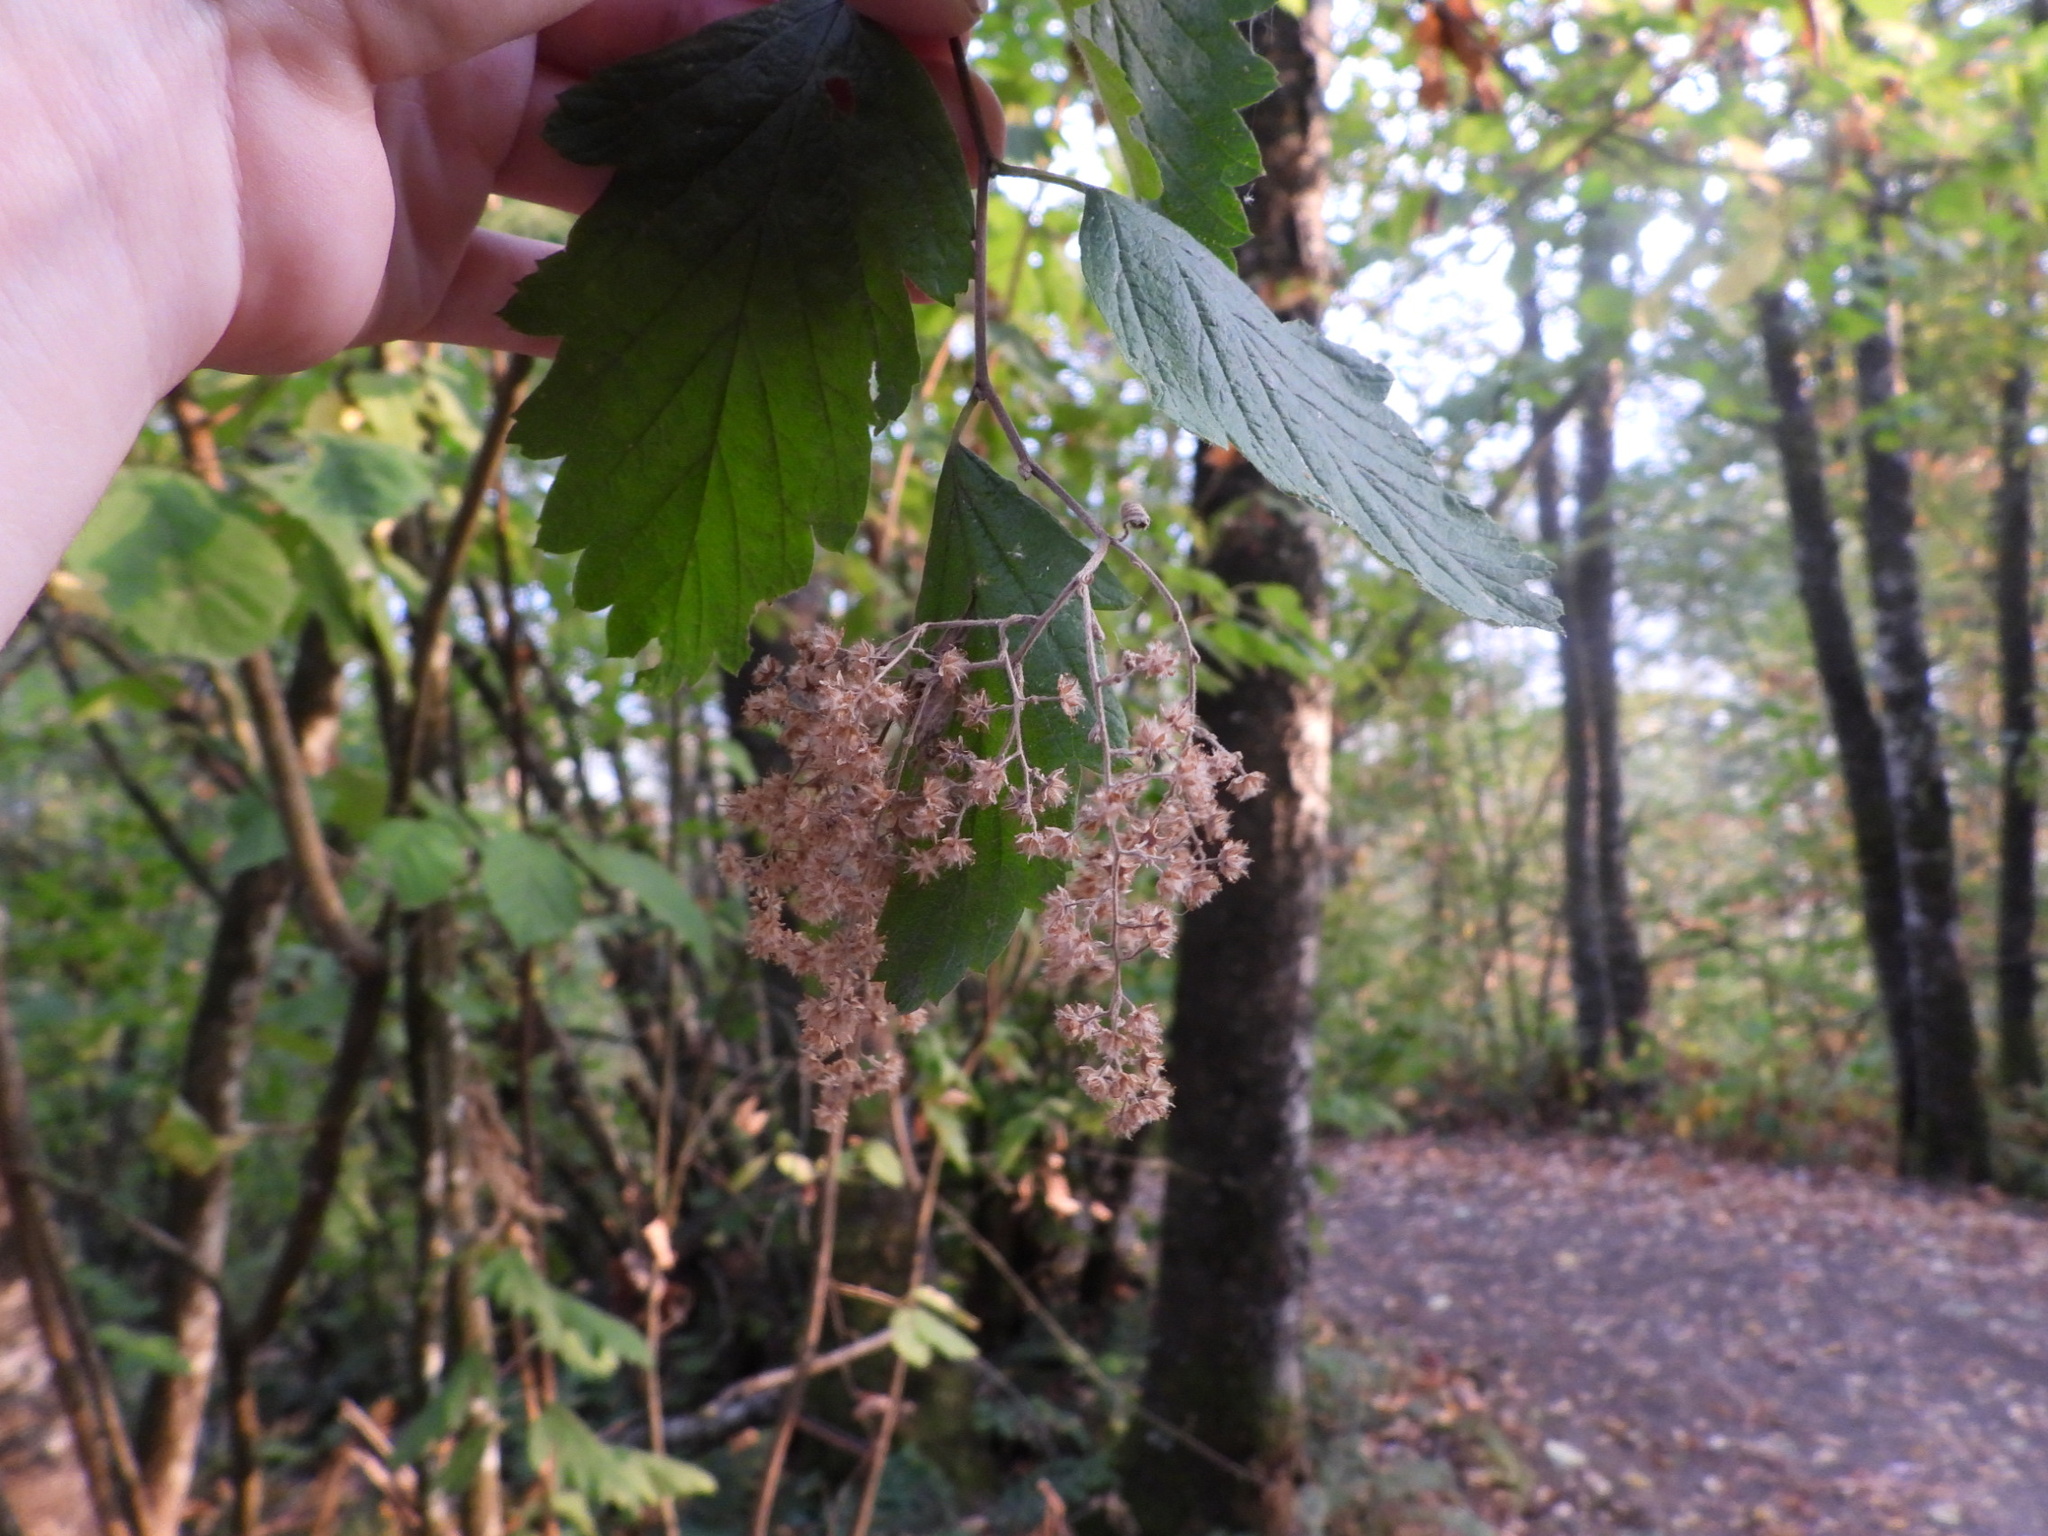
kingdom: Plantae
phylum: Tracheophyta
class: Magnoliopsida
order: Rosales
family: Rosaceae
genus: Holodiscus
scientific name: Holodiscus discolor
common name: Oceanspray
